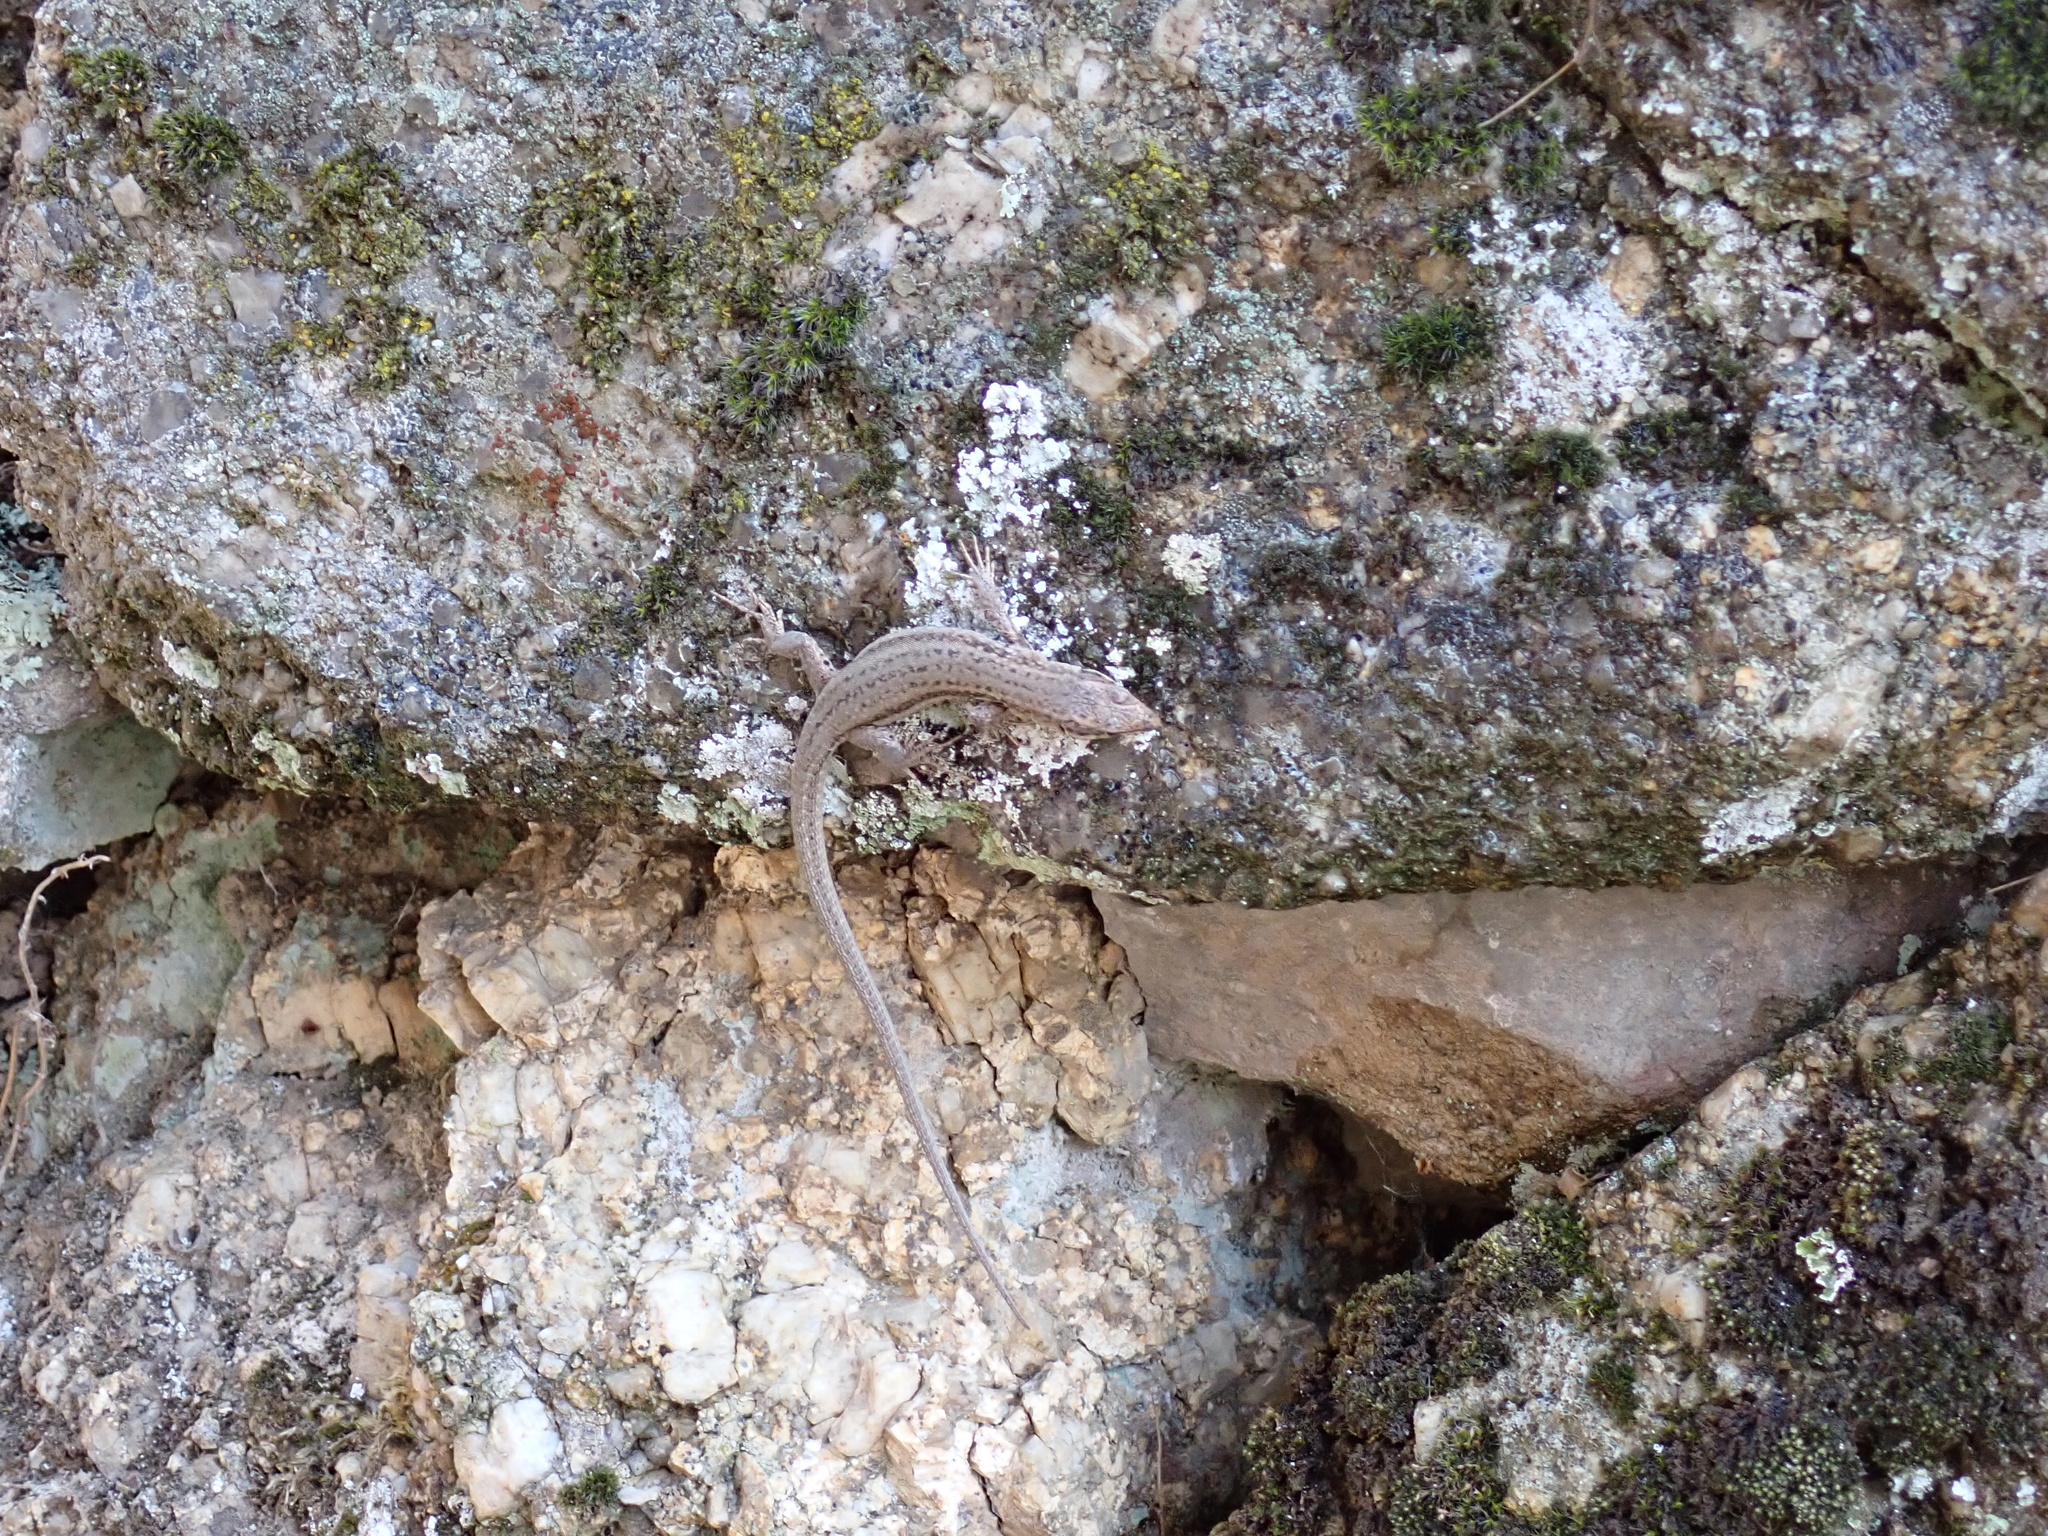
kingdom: Animalia
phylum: Chordata
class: Squamata
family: Lacertidae
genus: Podarcis
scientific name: Podarcis liolepis
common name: Catalonian wall lizard
